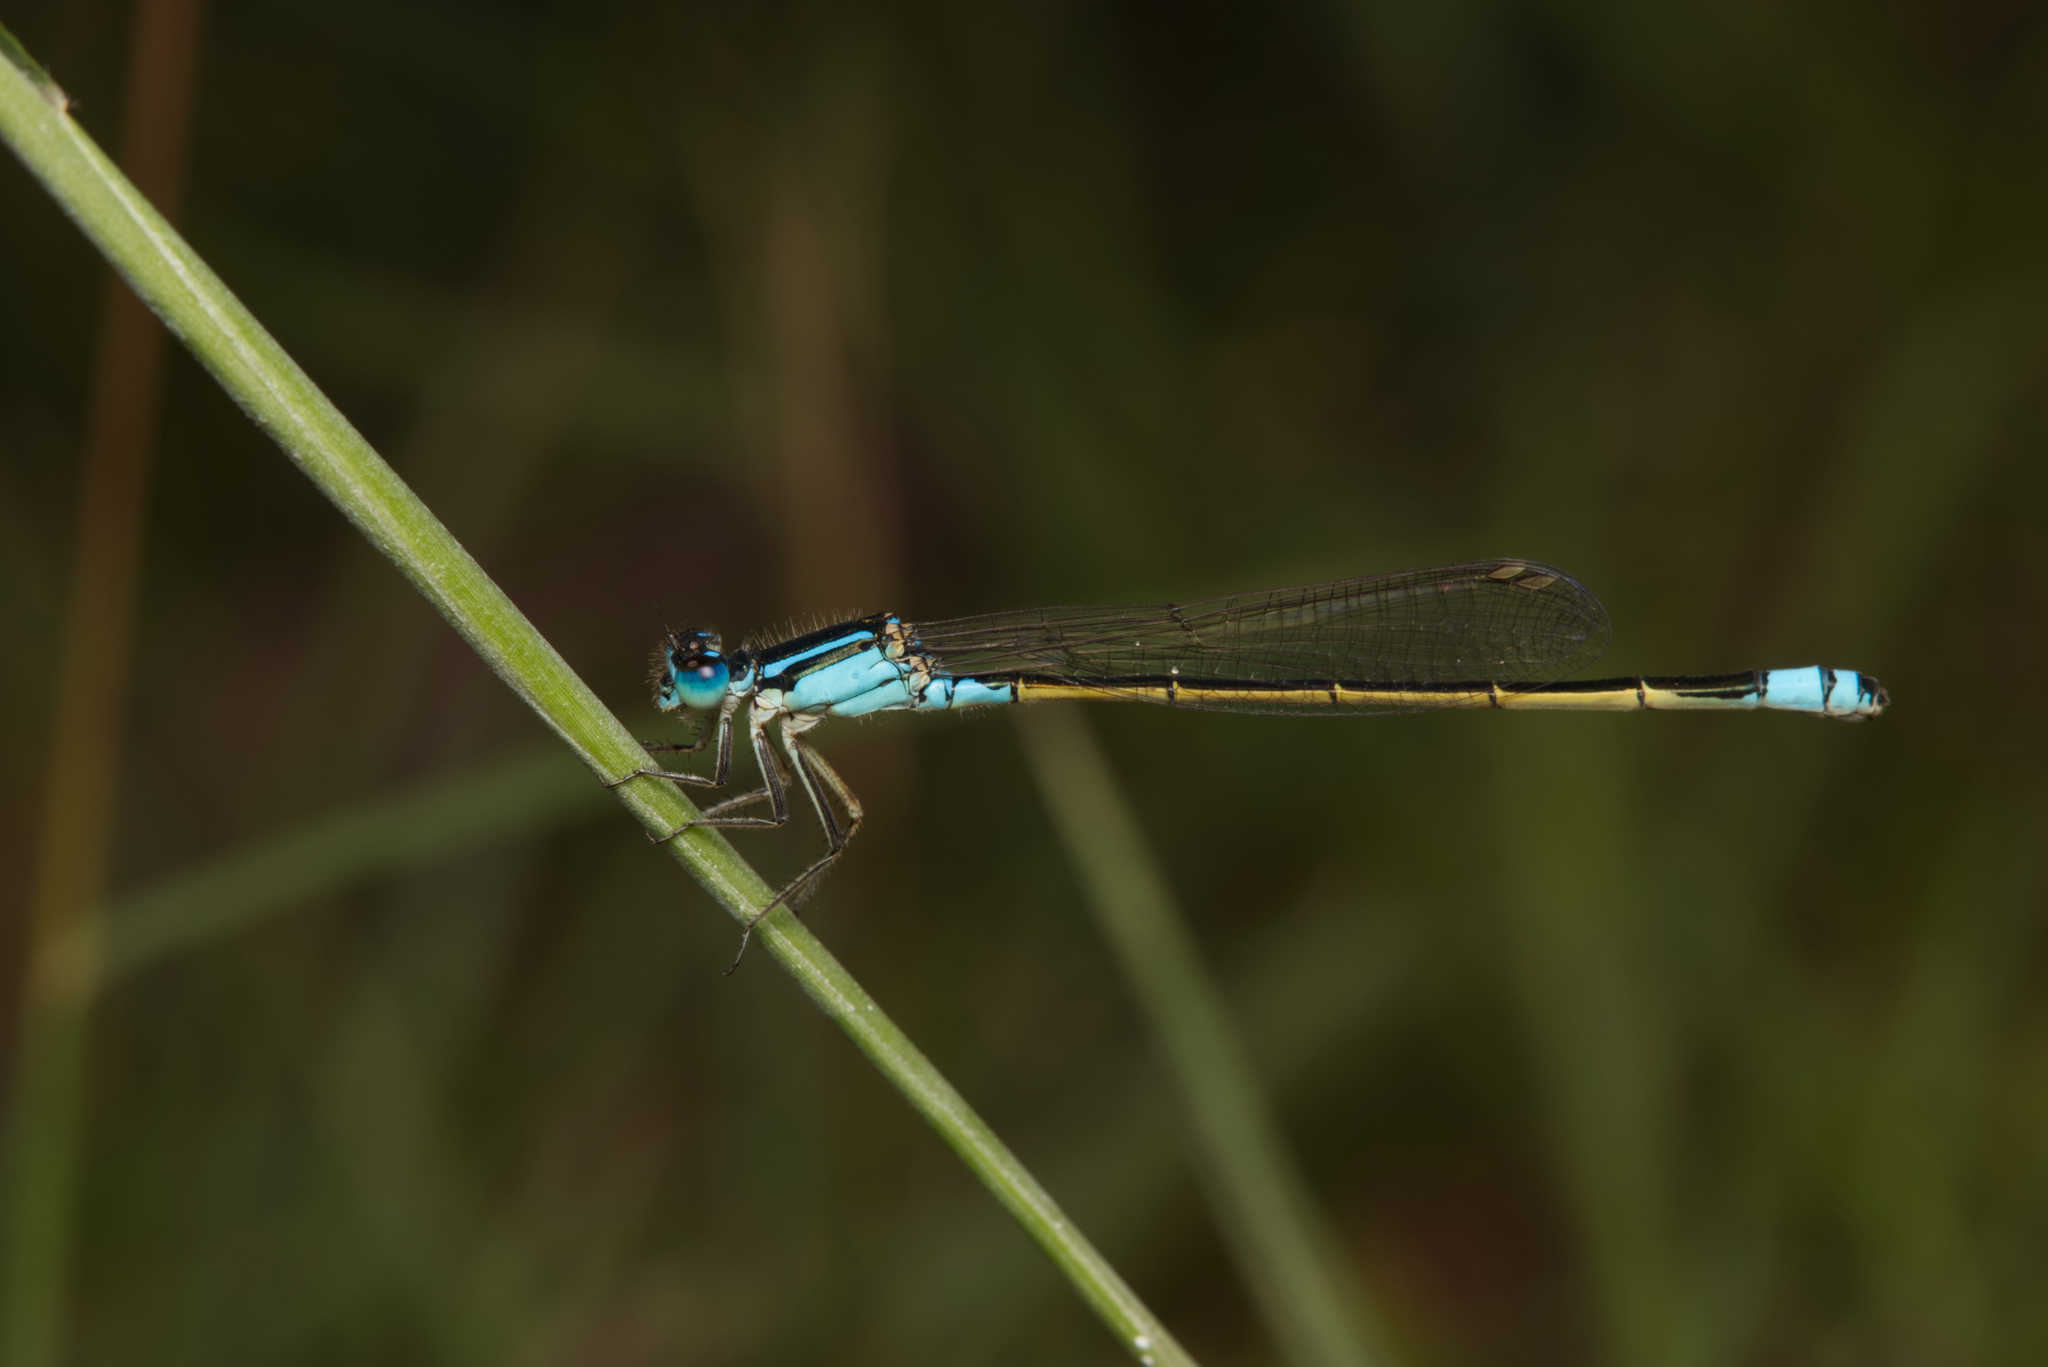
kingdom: Animalia
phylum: Arthropoda
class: Insecta
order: Odonata
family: Coenagrionidae
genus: Ischnura
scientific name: Ischnura heterosticta
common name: Common bluetail
